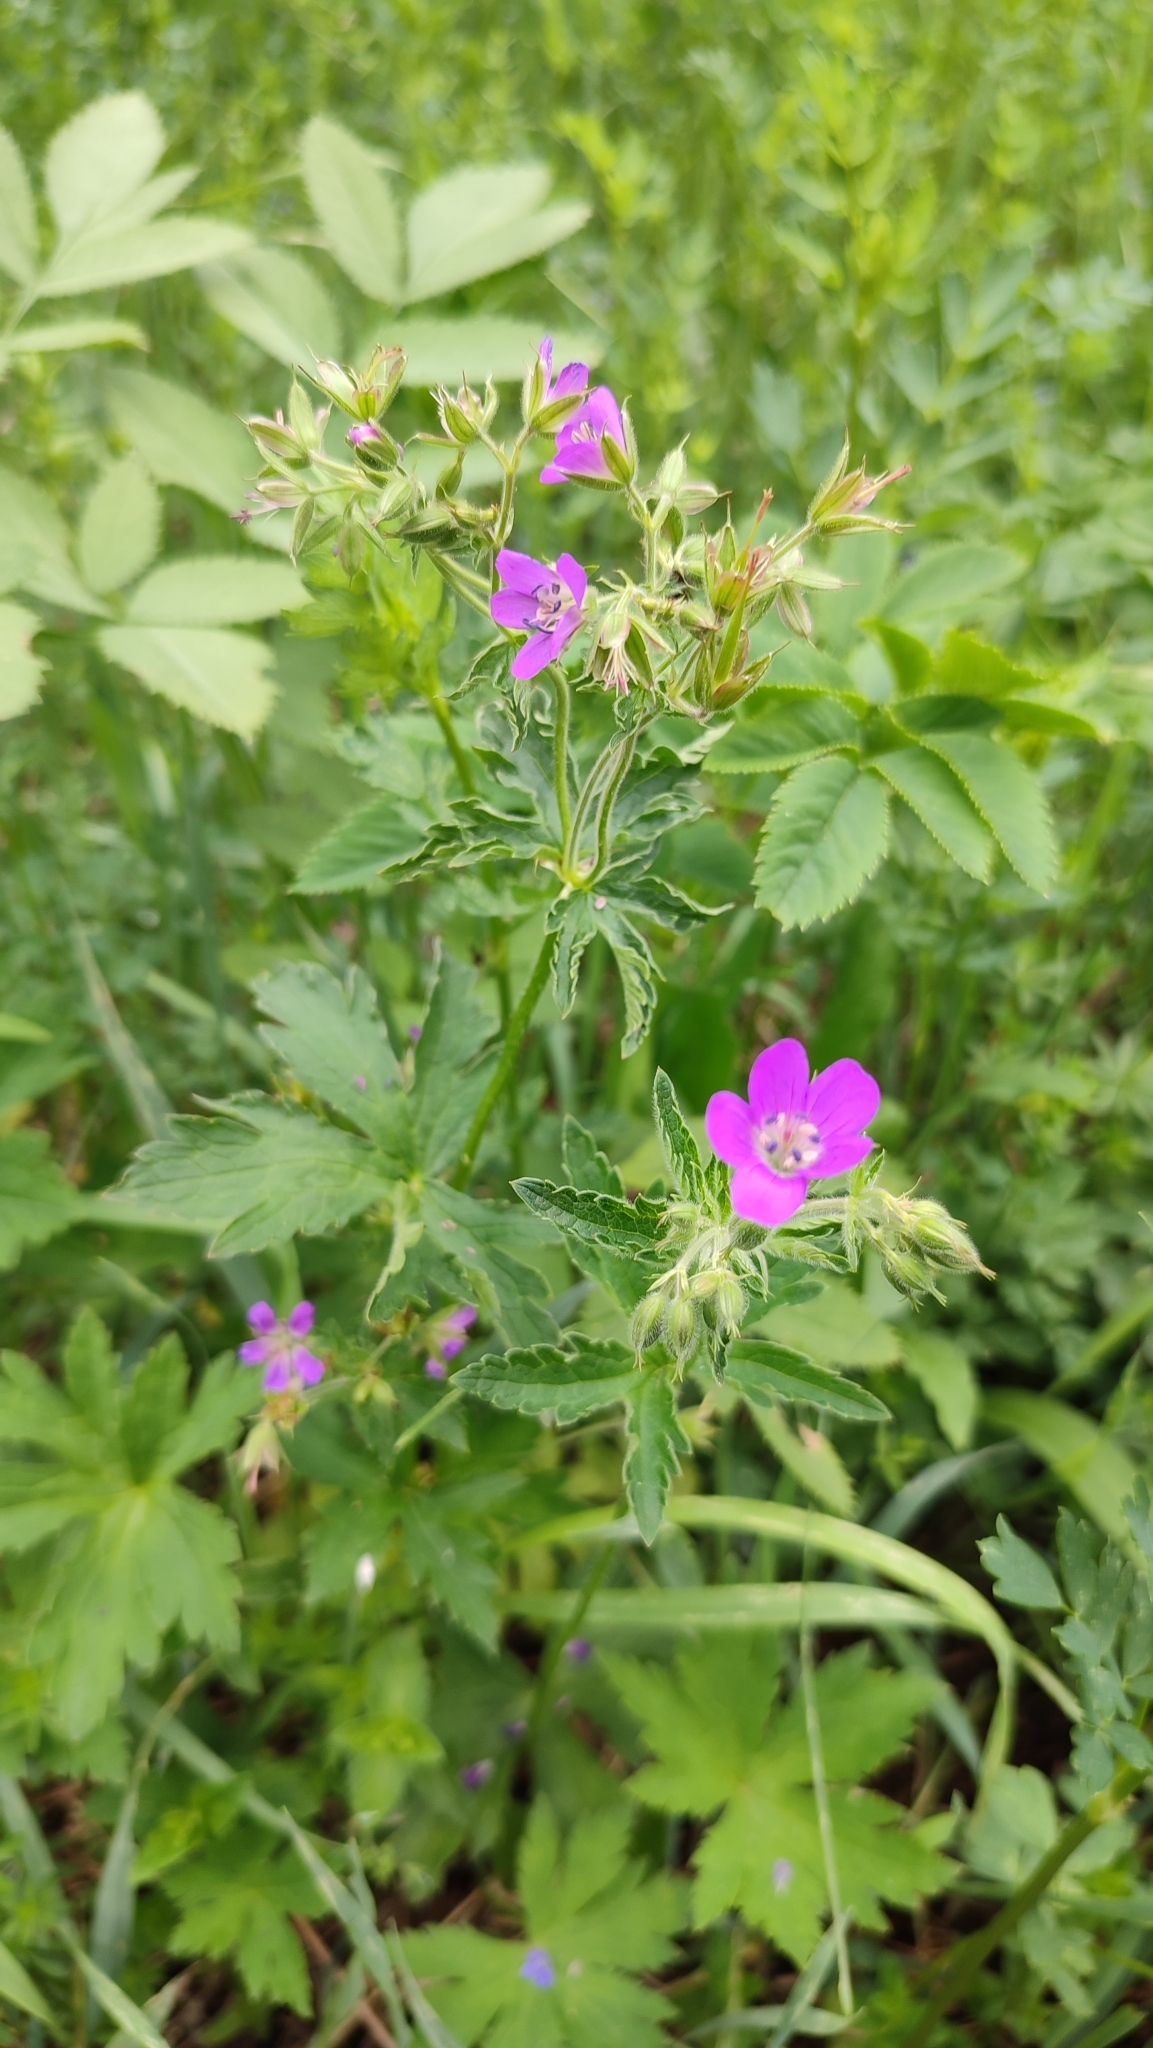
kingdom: Plantae
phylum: Tracheophyta
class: Magnoliopsida
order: Geraniales
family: Geraniaceae
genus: Geranium
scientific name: Geranium sylvaticum
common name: Wood crane's-bill
